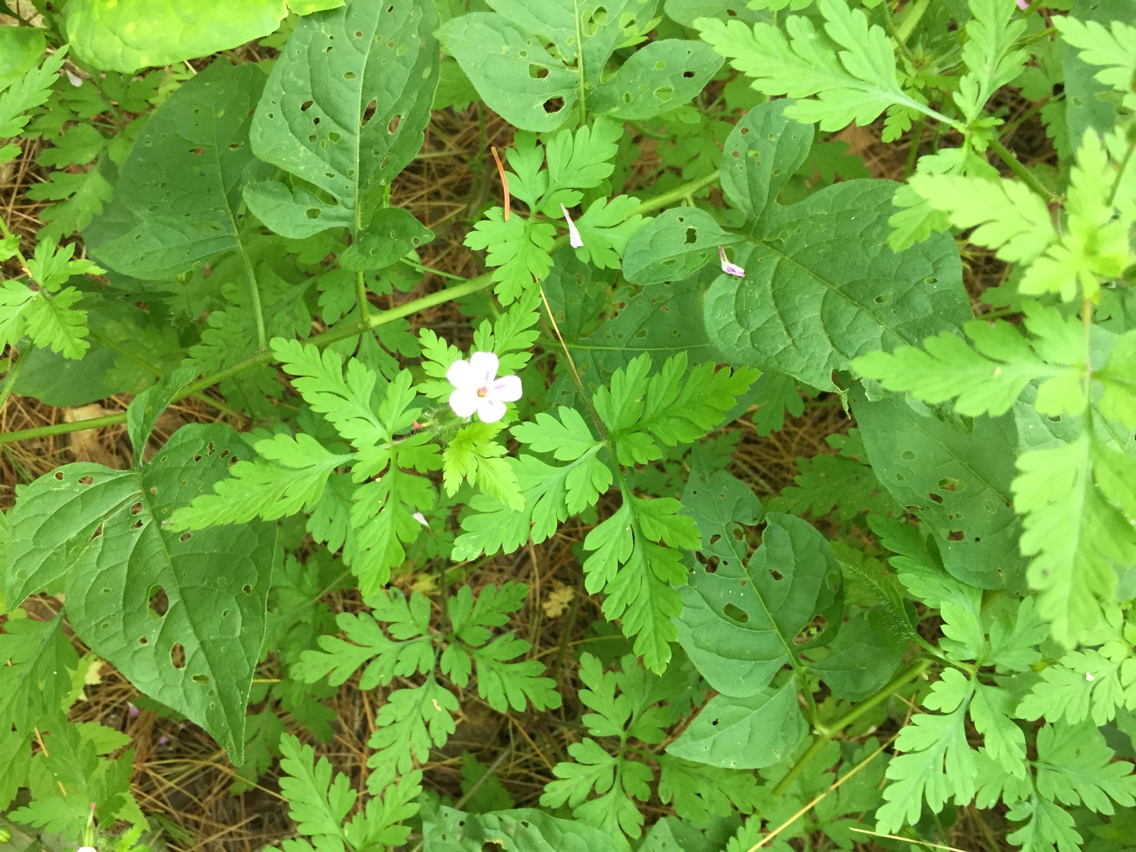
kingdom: Plantae
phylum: Tracheophyta
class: Magnoliopsida
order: Geraniales
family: Geraniaceae
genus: Geranium
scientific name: Geranium robertianum
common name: Herb-robert
